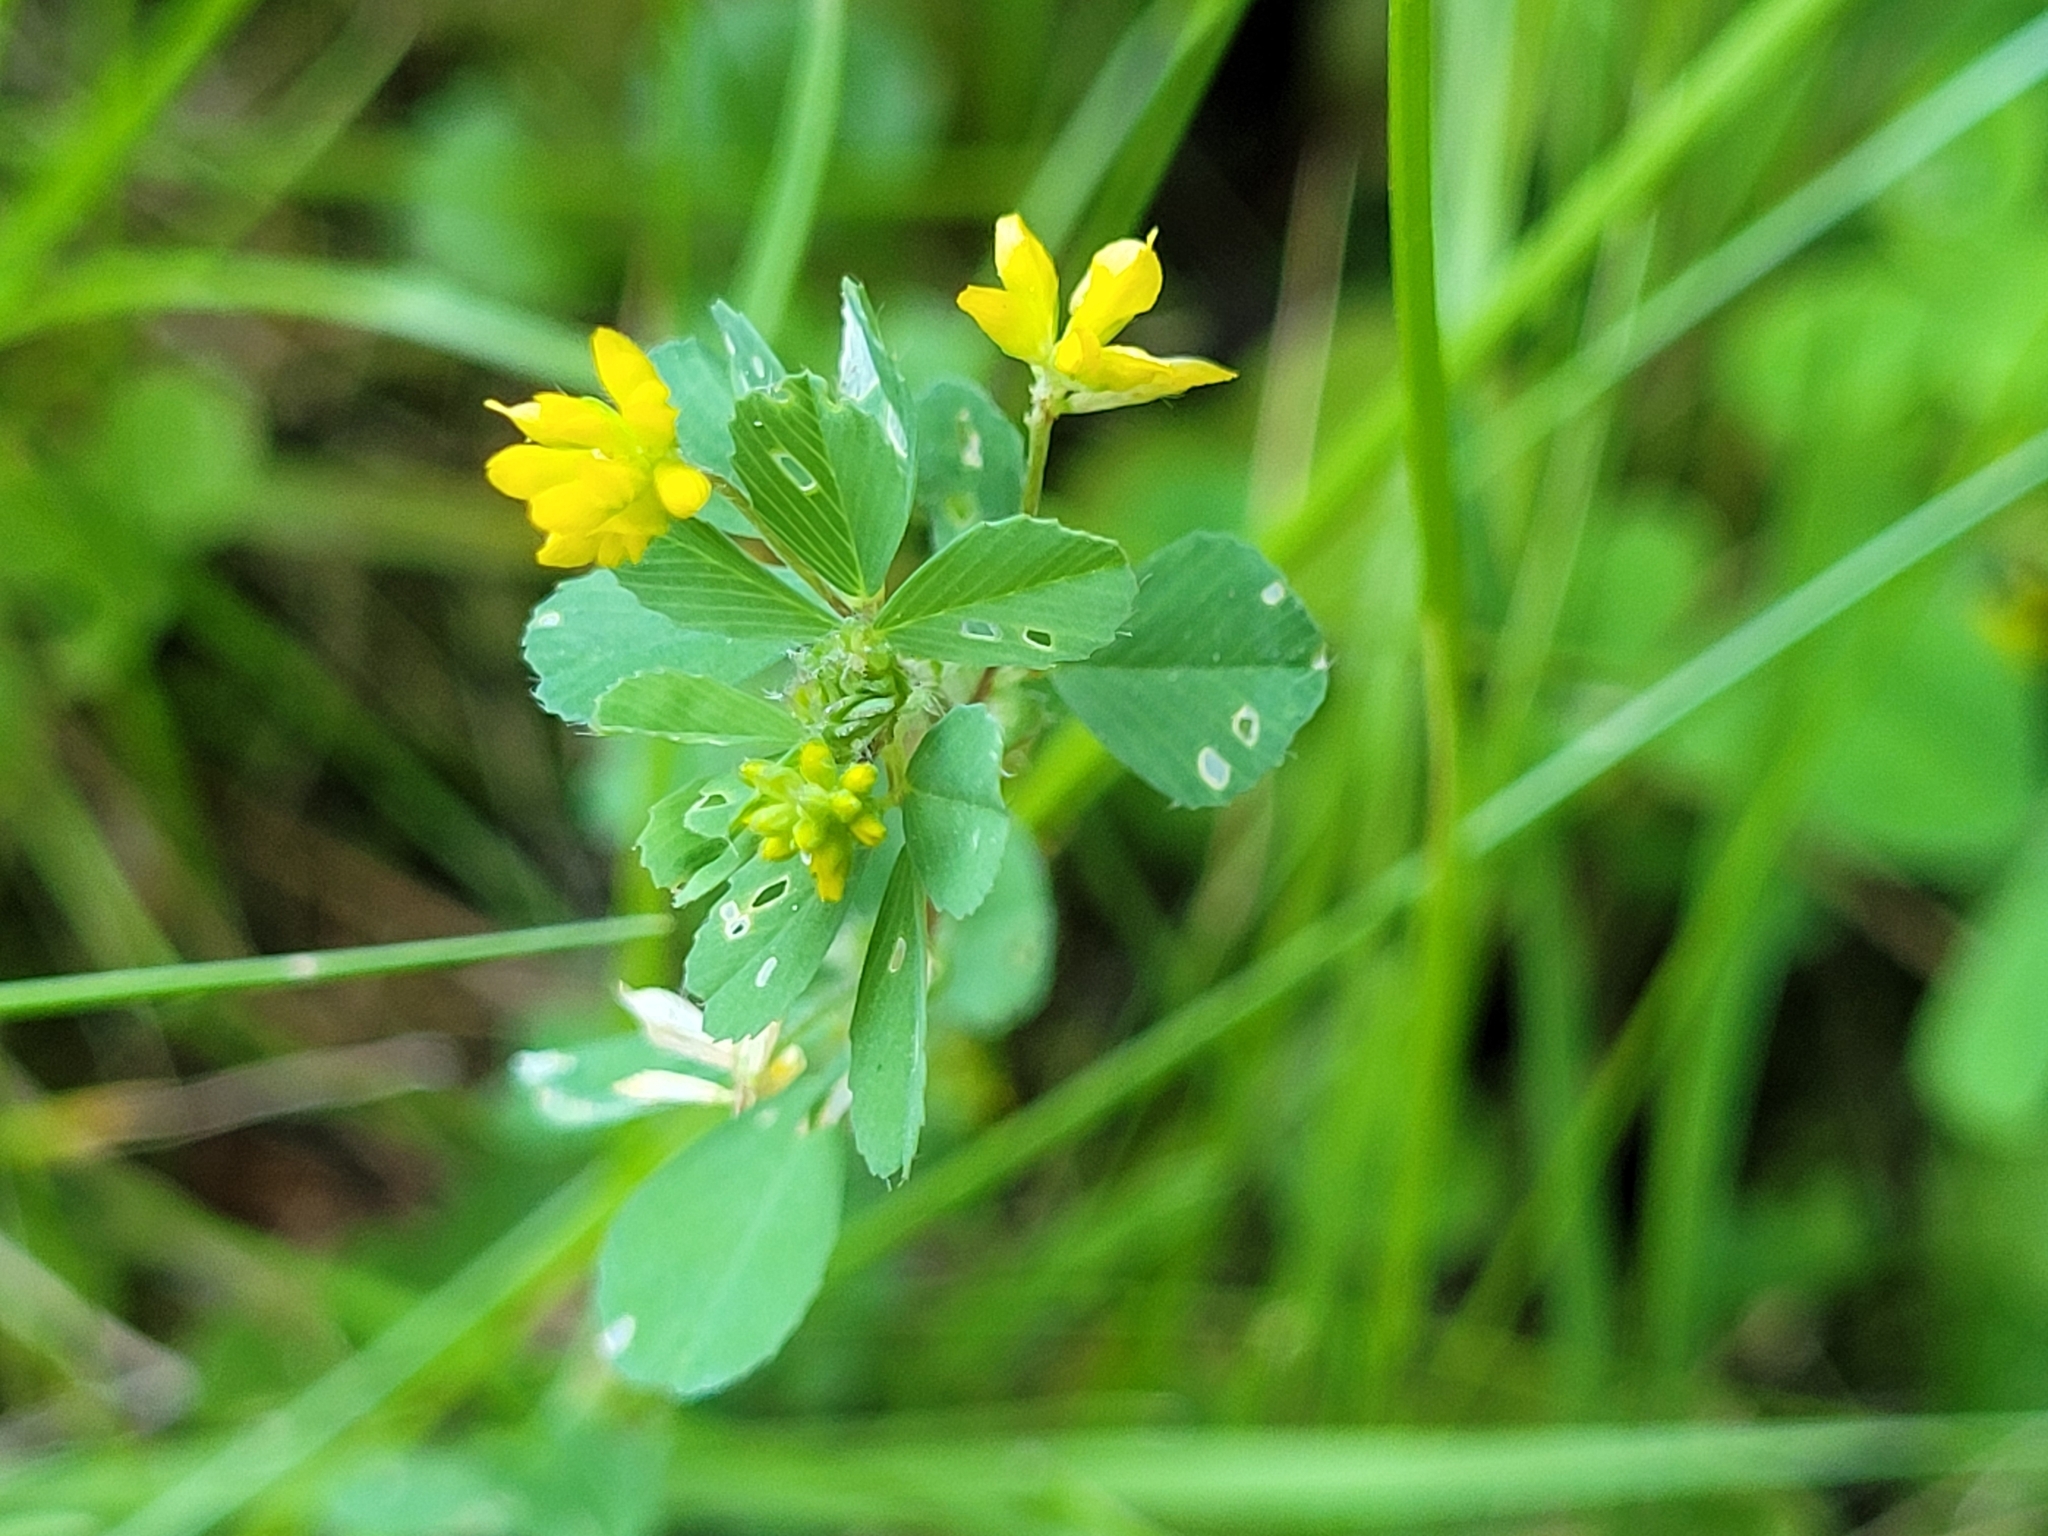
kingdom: Plantae
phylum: Tracheophyta
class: Magnoliopsida
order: Fabales
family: Fabaceae
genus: Trifolium
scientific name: Trifolium dubium
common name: Suckling clover
